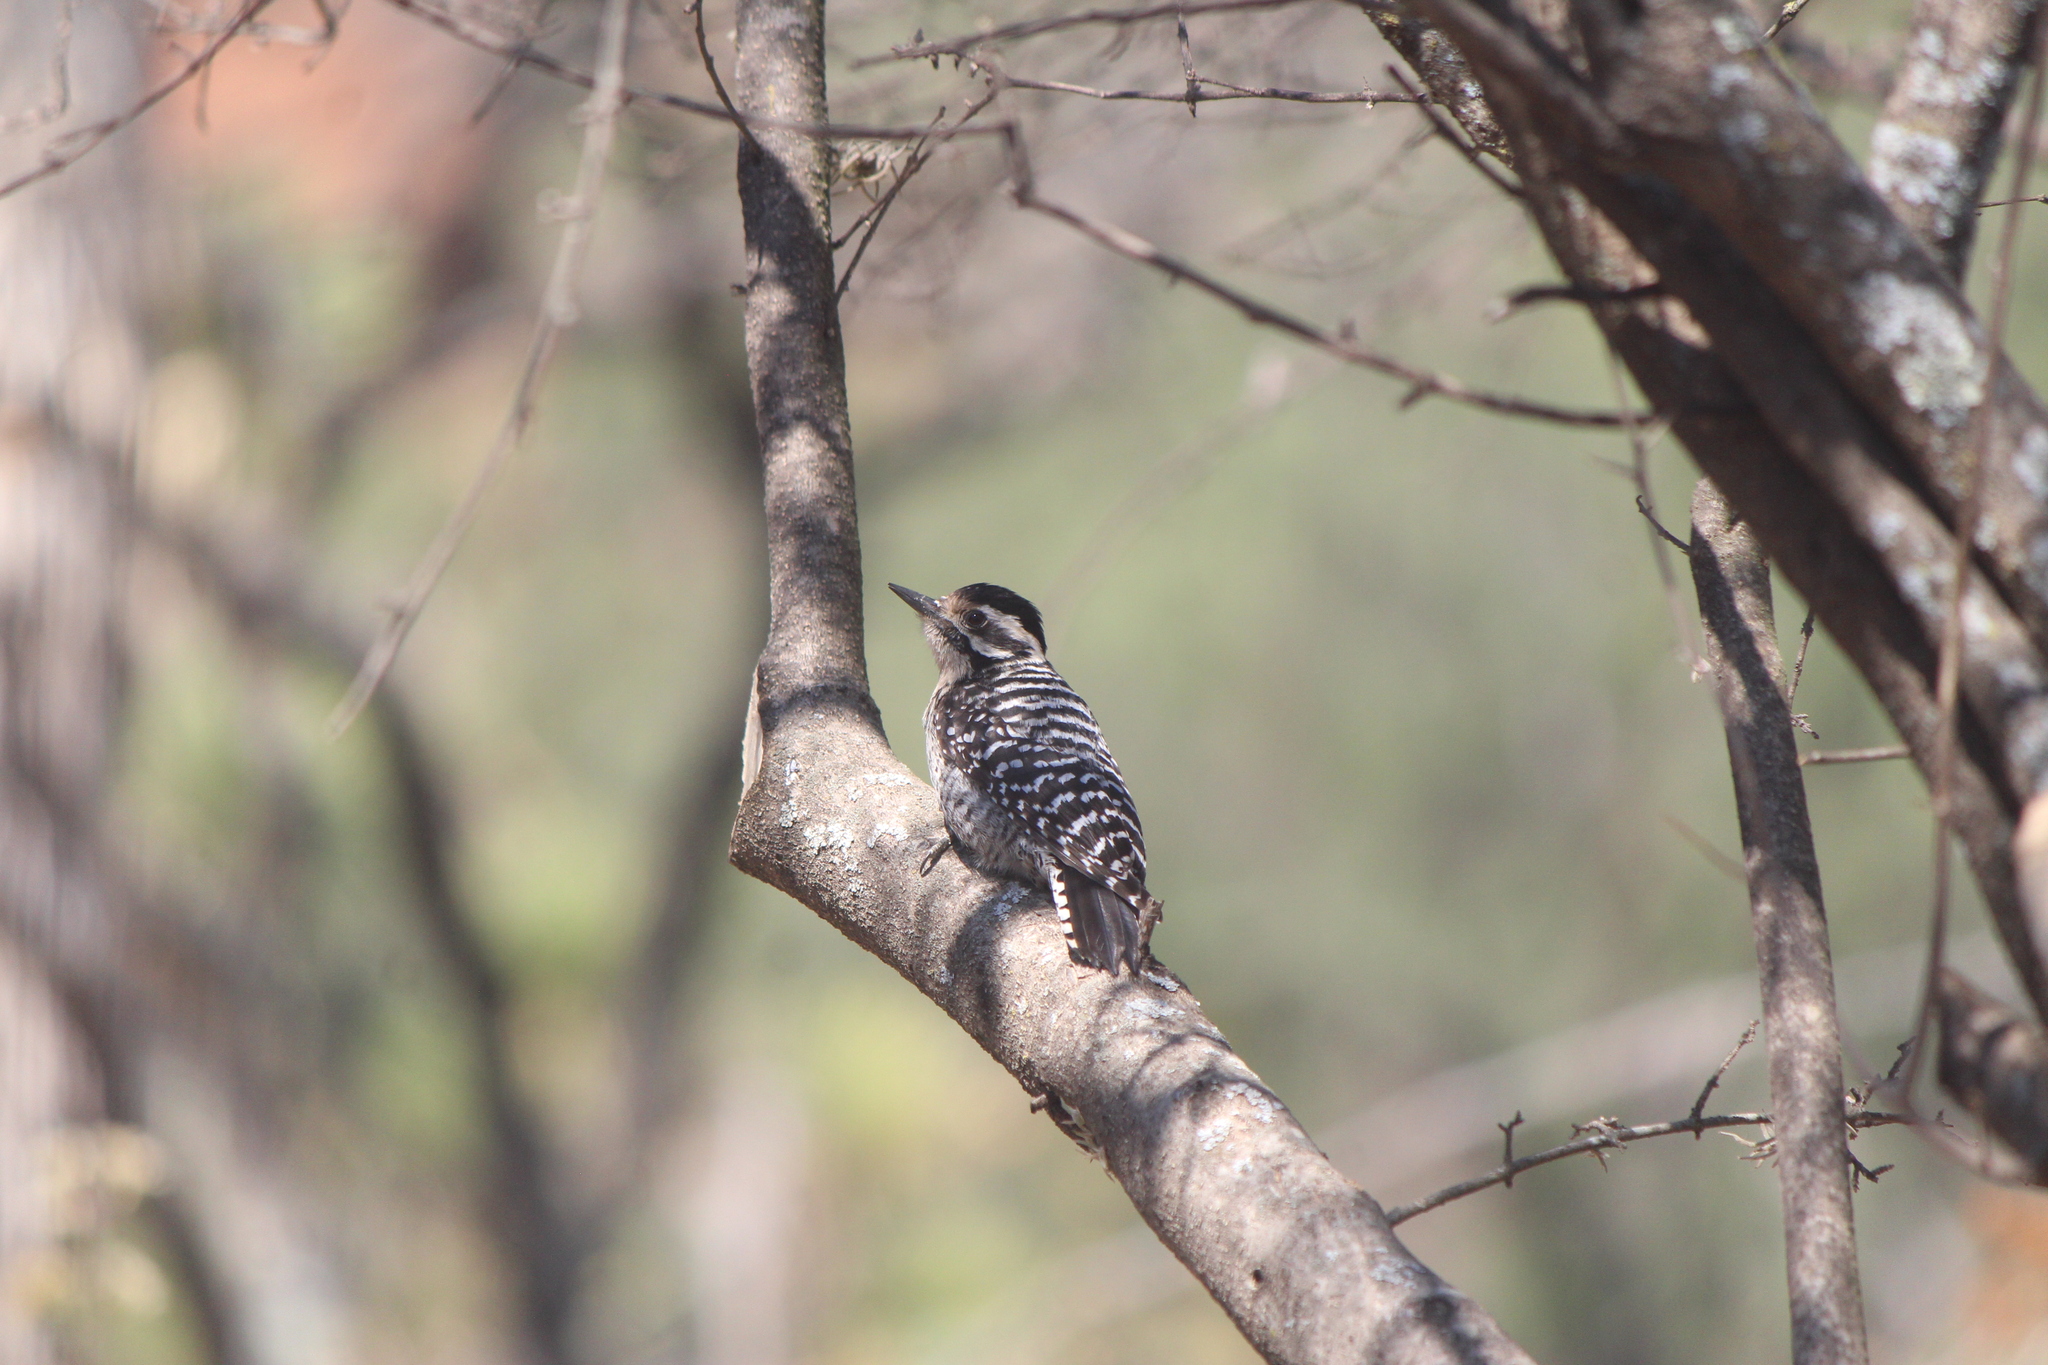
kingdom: Animalia
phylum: Chordata
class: Aves
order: Piciformes
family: Picidae
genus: Dryobates
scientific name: Dryobates scalaris
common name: Ladder-backed woodpecker
